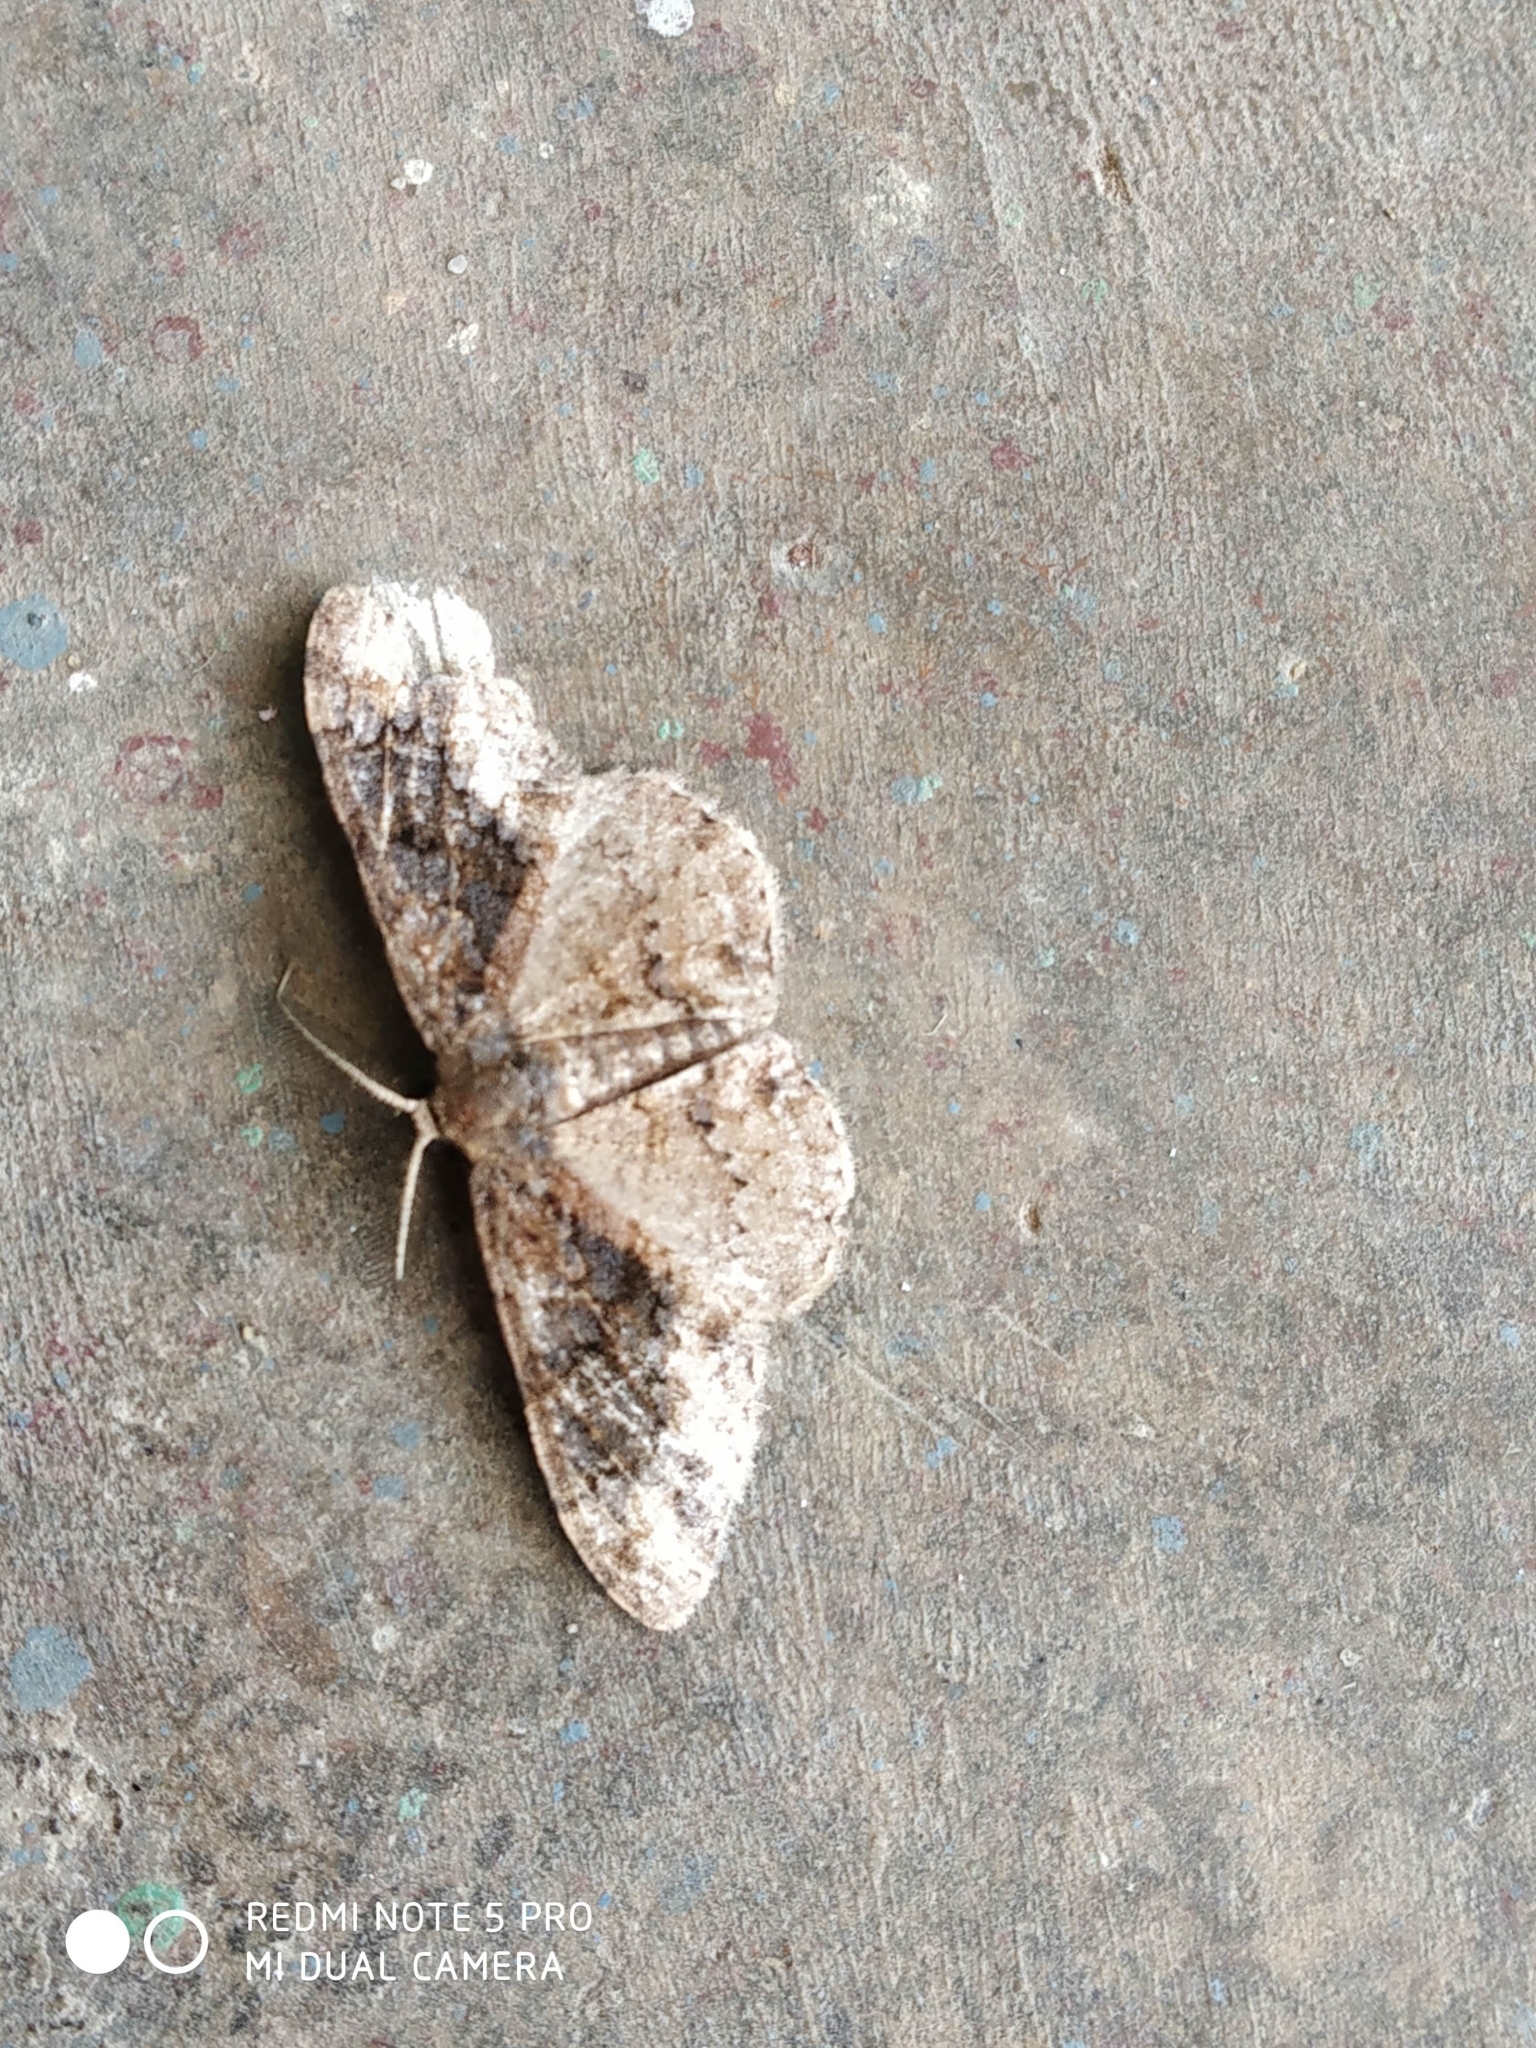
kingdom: Animalia
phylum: Arthropoda
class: Insecta
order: Lepidoptera
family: Geometridae
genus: Parapholodes
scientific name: Parapholodes
